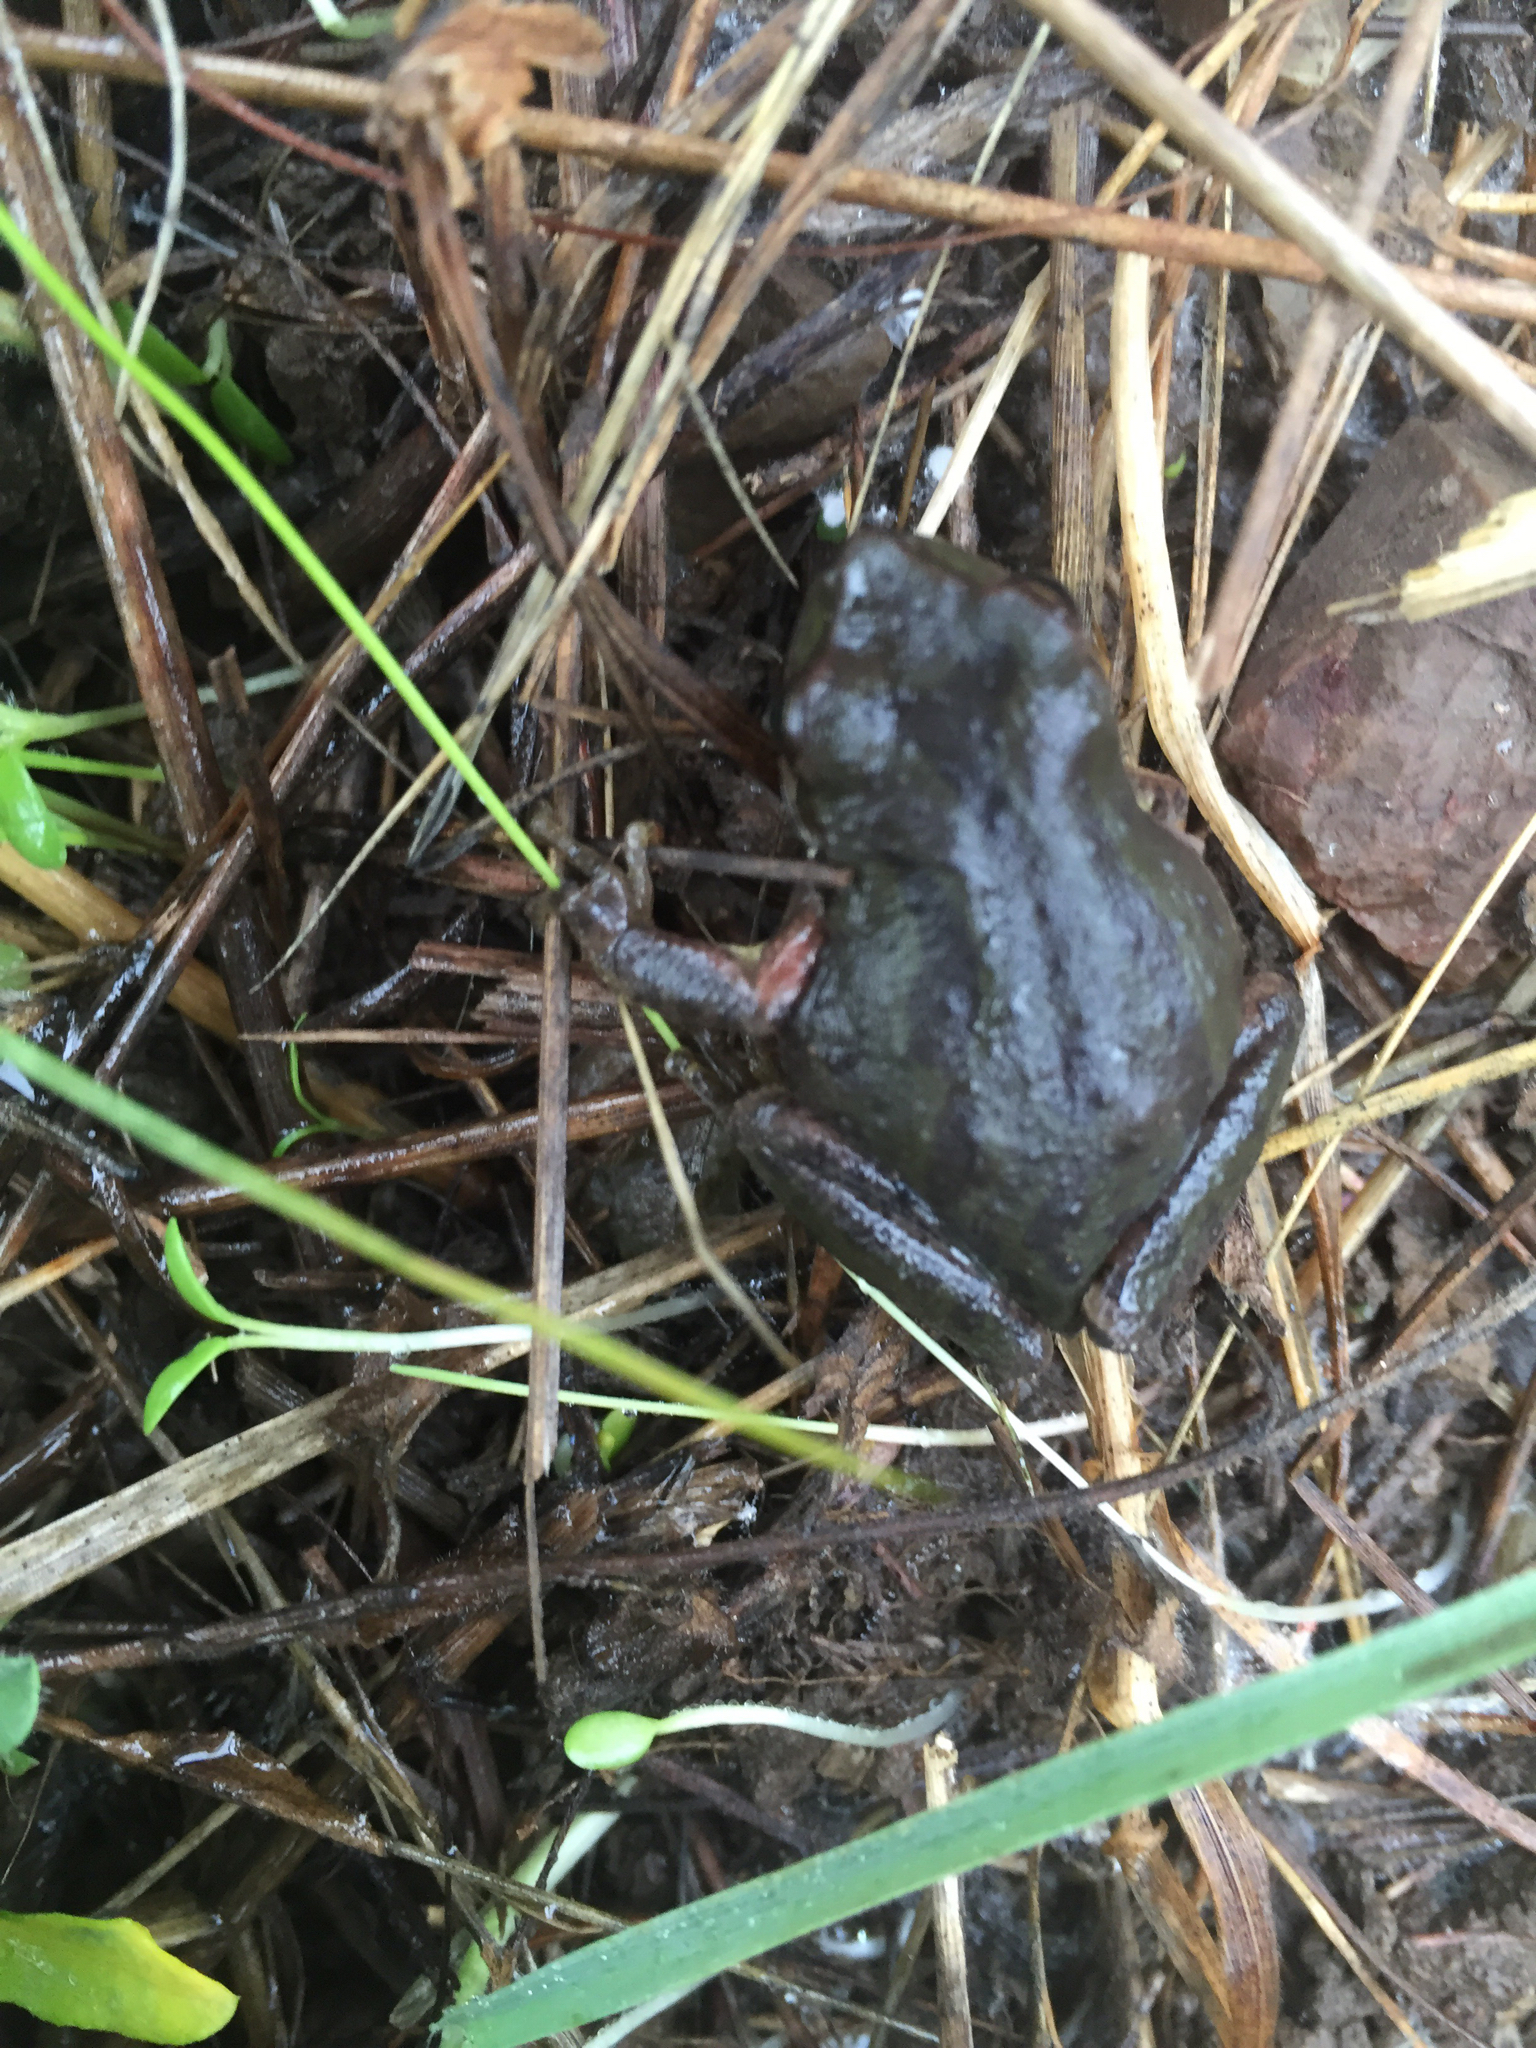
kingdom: Animalia
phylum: Chordata
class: Amphibia
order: Anura
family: Hylidae
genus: Pseudacris
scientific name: Pseudacris regilla
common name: Pacific chorus frog
